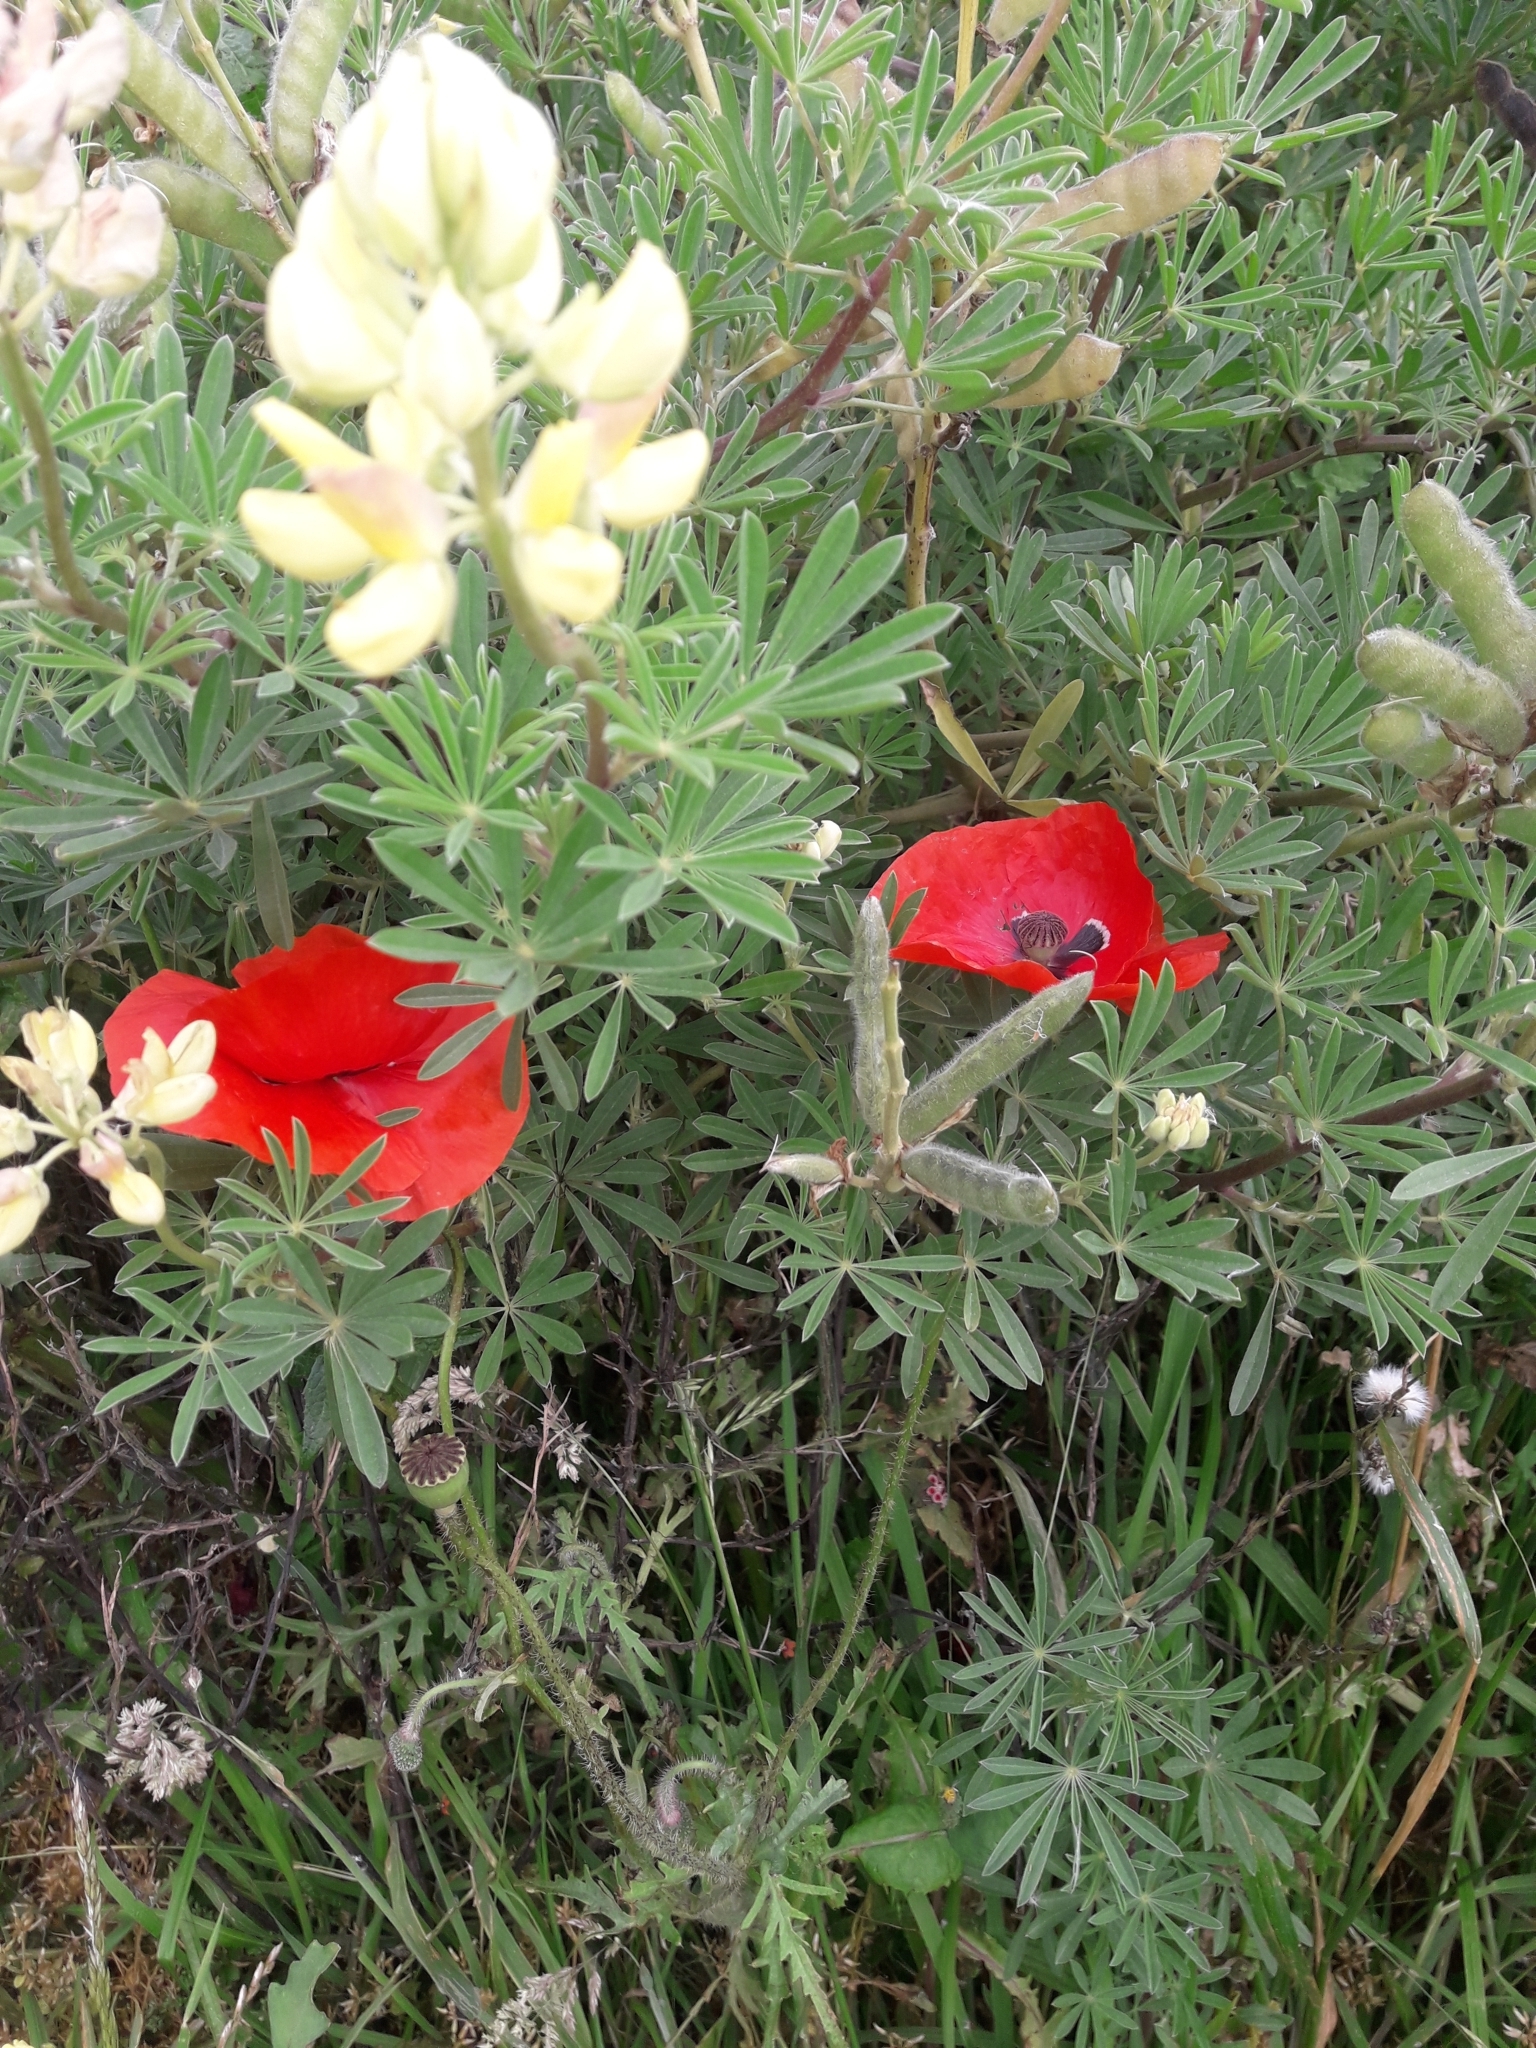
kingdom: Plantae
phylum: Tracheophyta
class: Magnoliopsida
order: Ranunculales
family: Papaveraceae
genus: Papaver
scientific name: Papaver rhoeas
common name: Corn poppy
